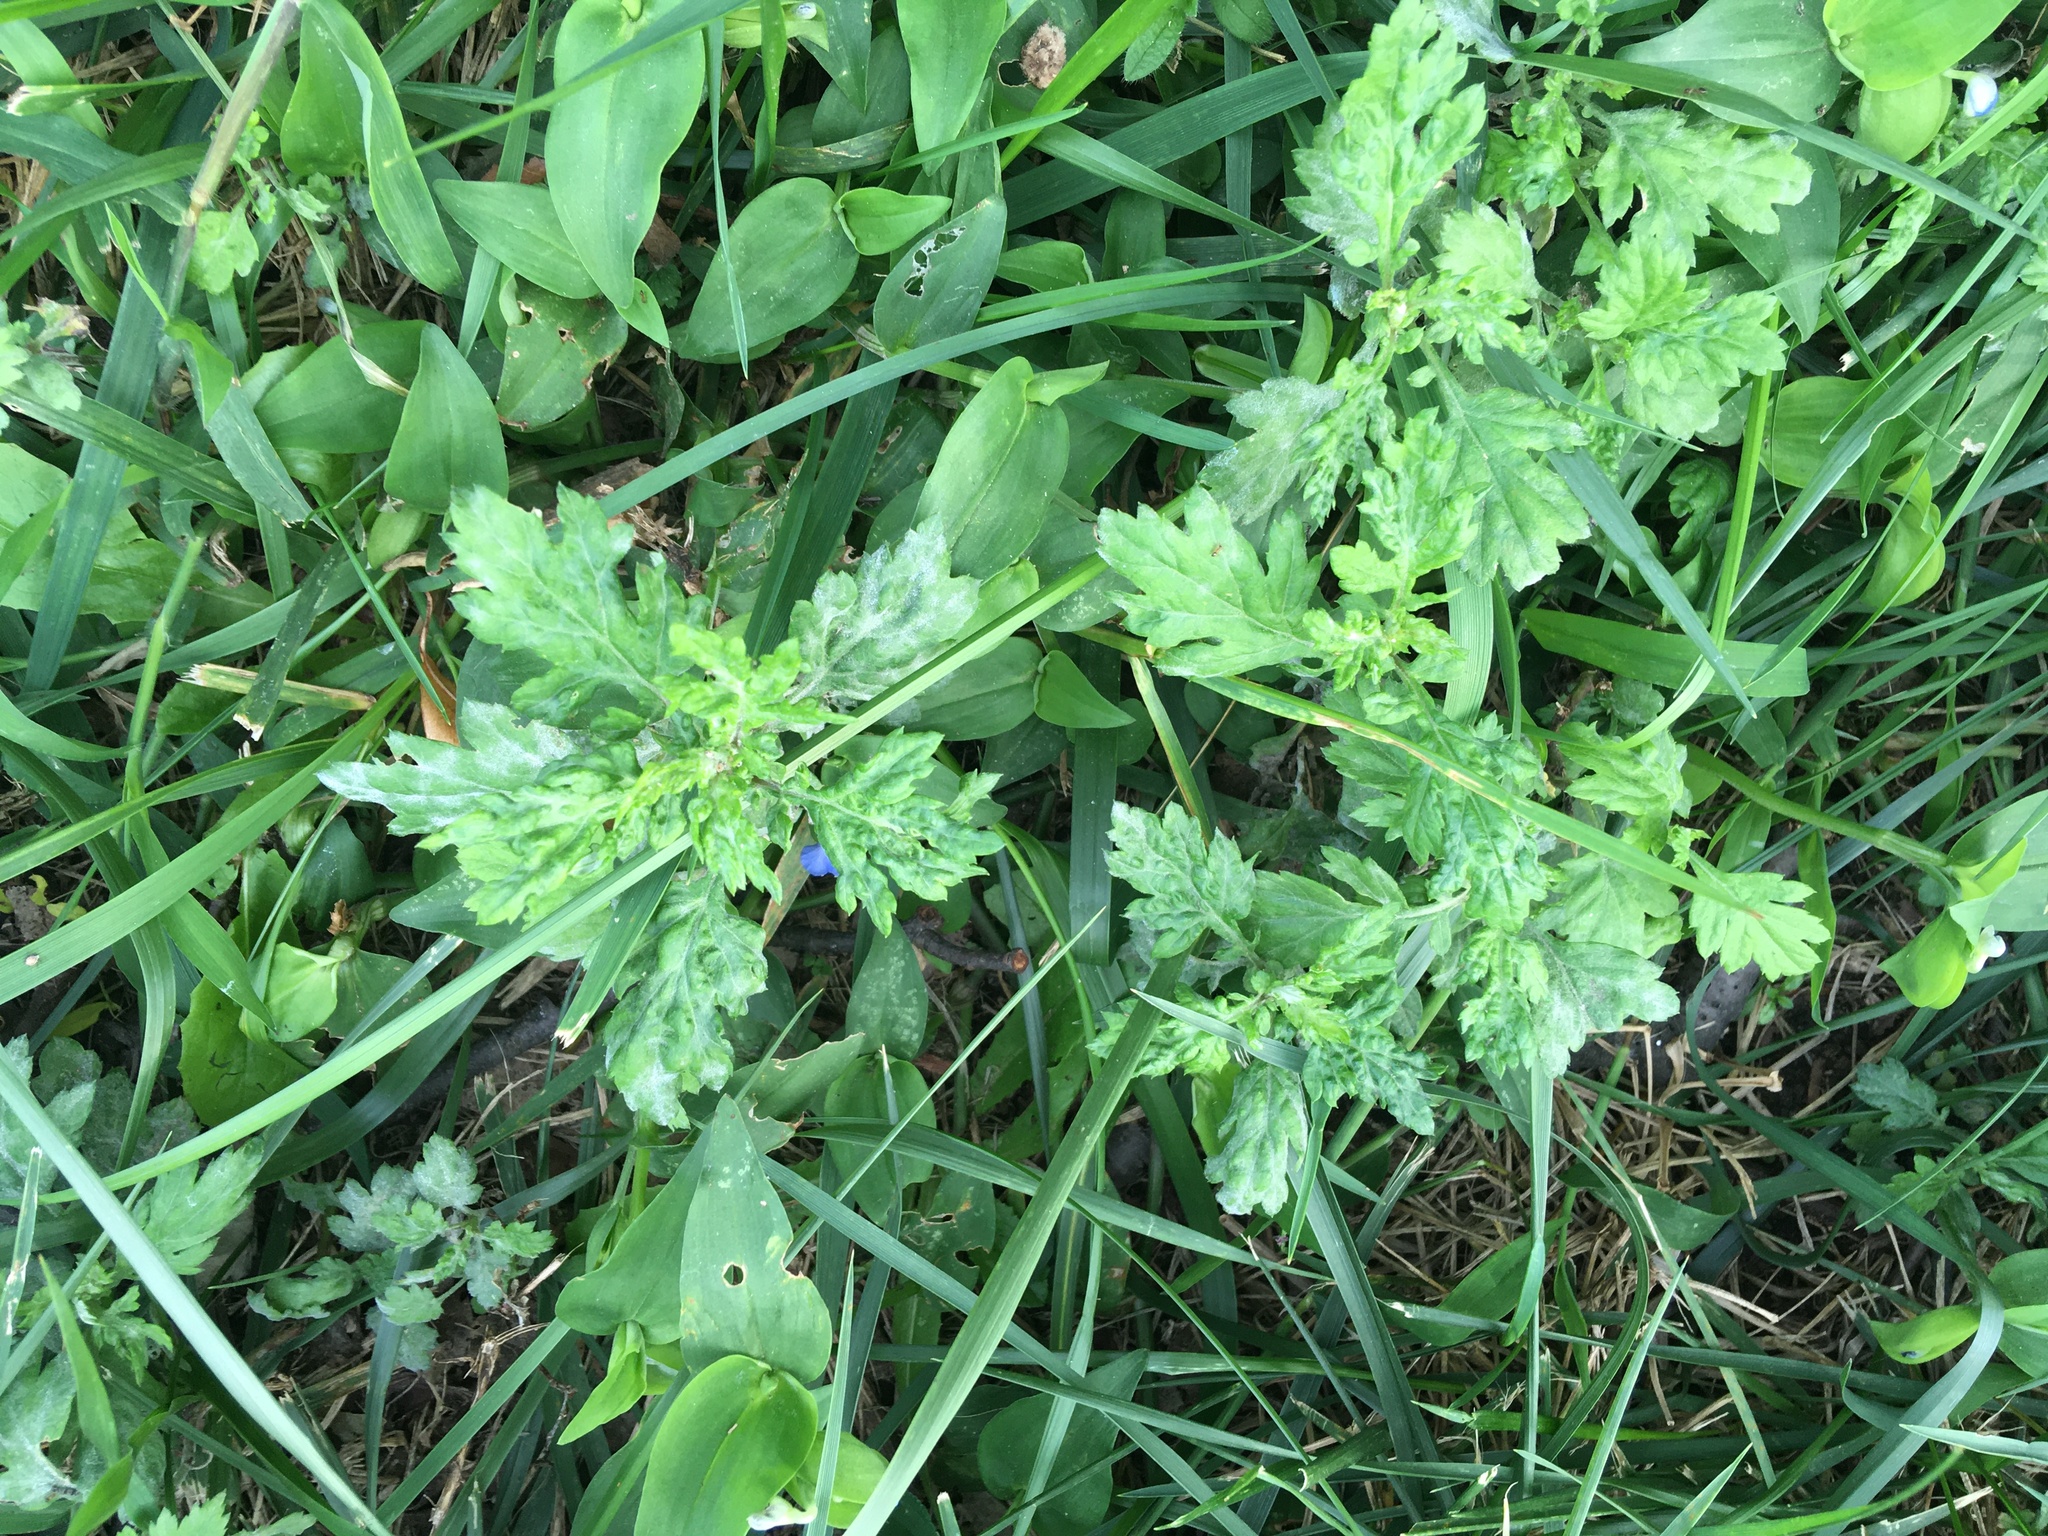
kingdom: Plantae
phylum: Tracheophyta
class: Magnoliopsida
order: Asterales
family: Asteraceae
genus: Artemisia
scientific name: Artemisia vulgaris
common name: Mugwort
